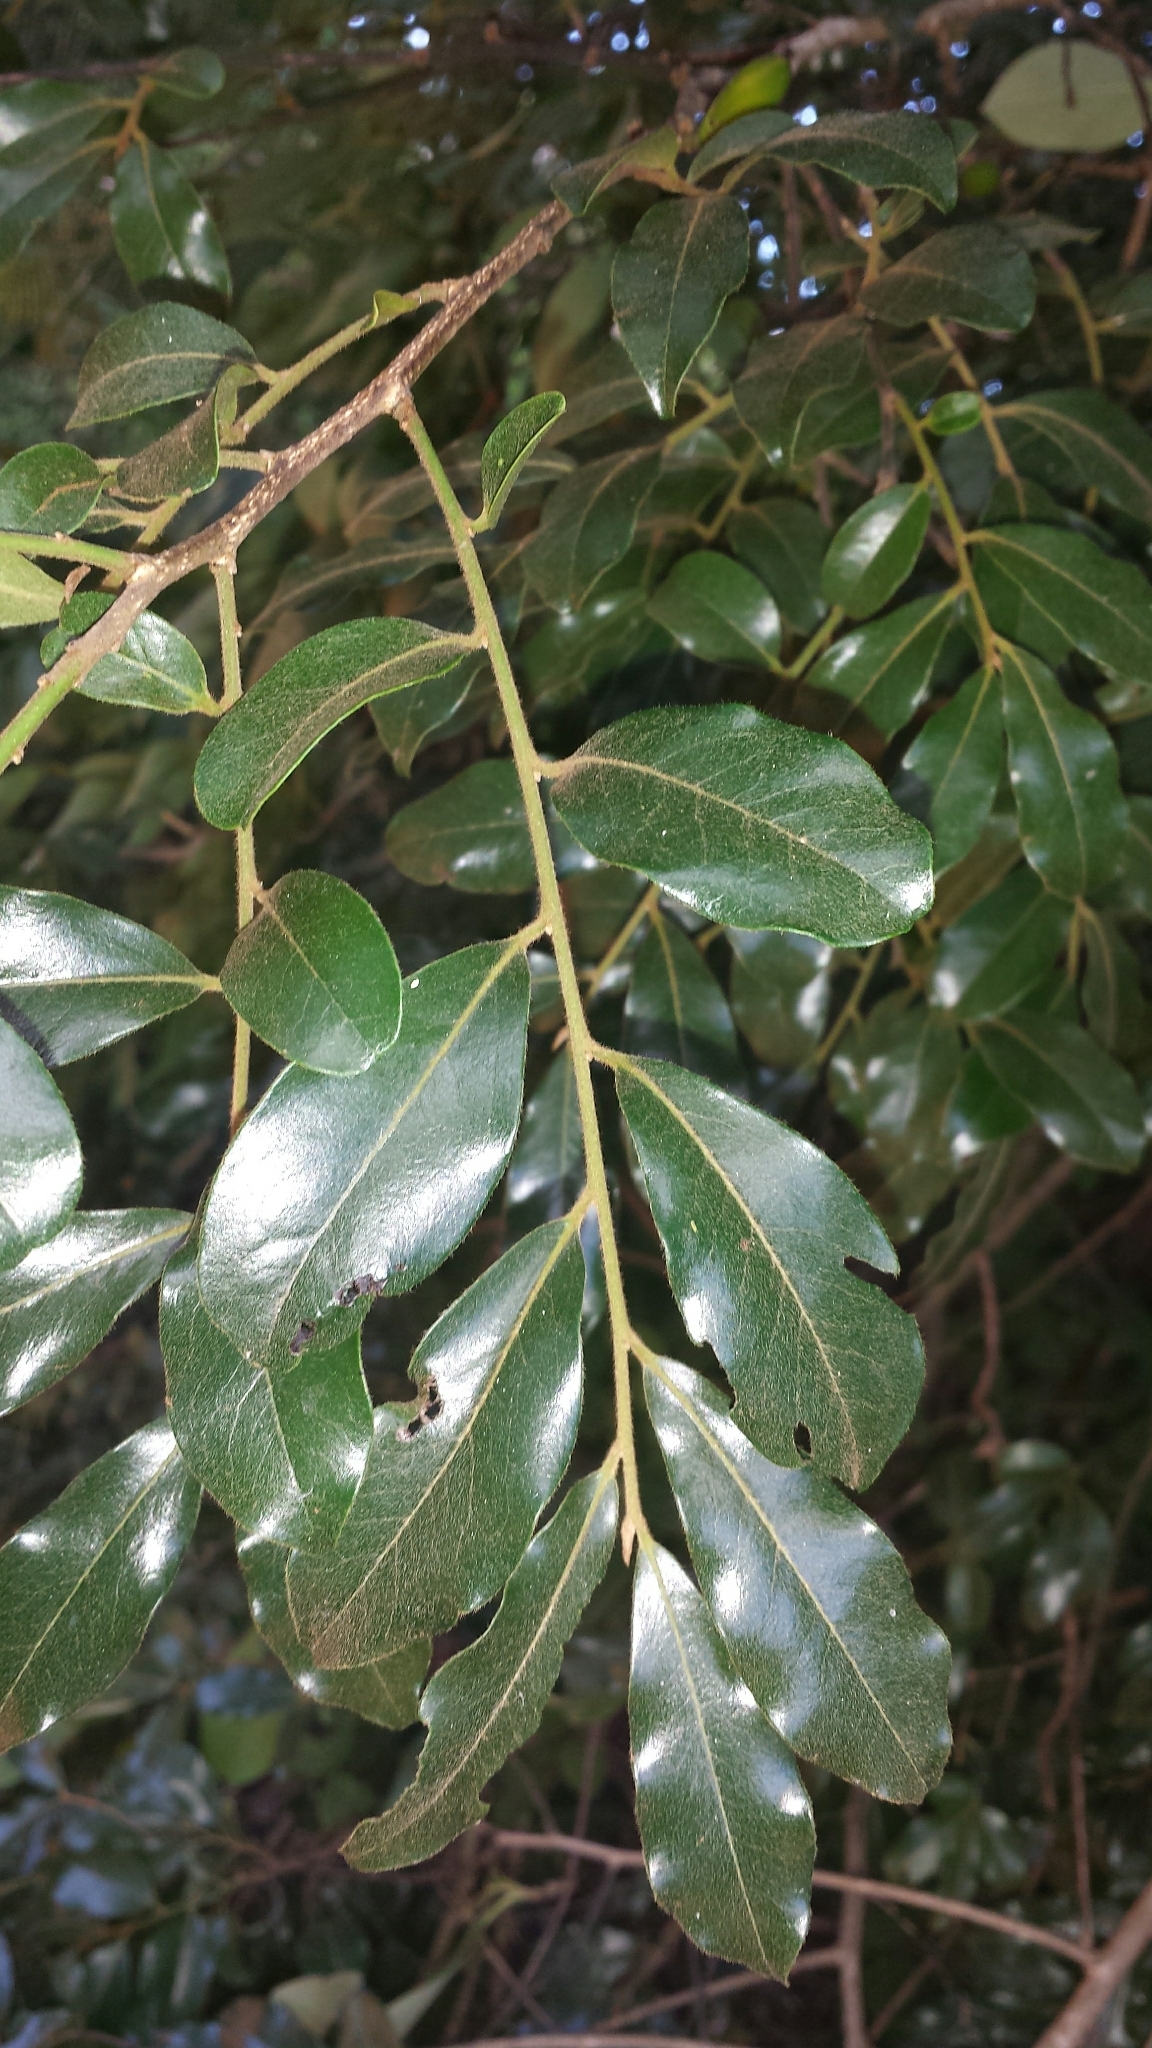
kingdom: Plantae
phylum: Tracheophyta
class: Magnoliopsida
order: Ericales
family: Ebenaceae
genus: Diospyros
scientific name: Diospyros tropophylla
